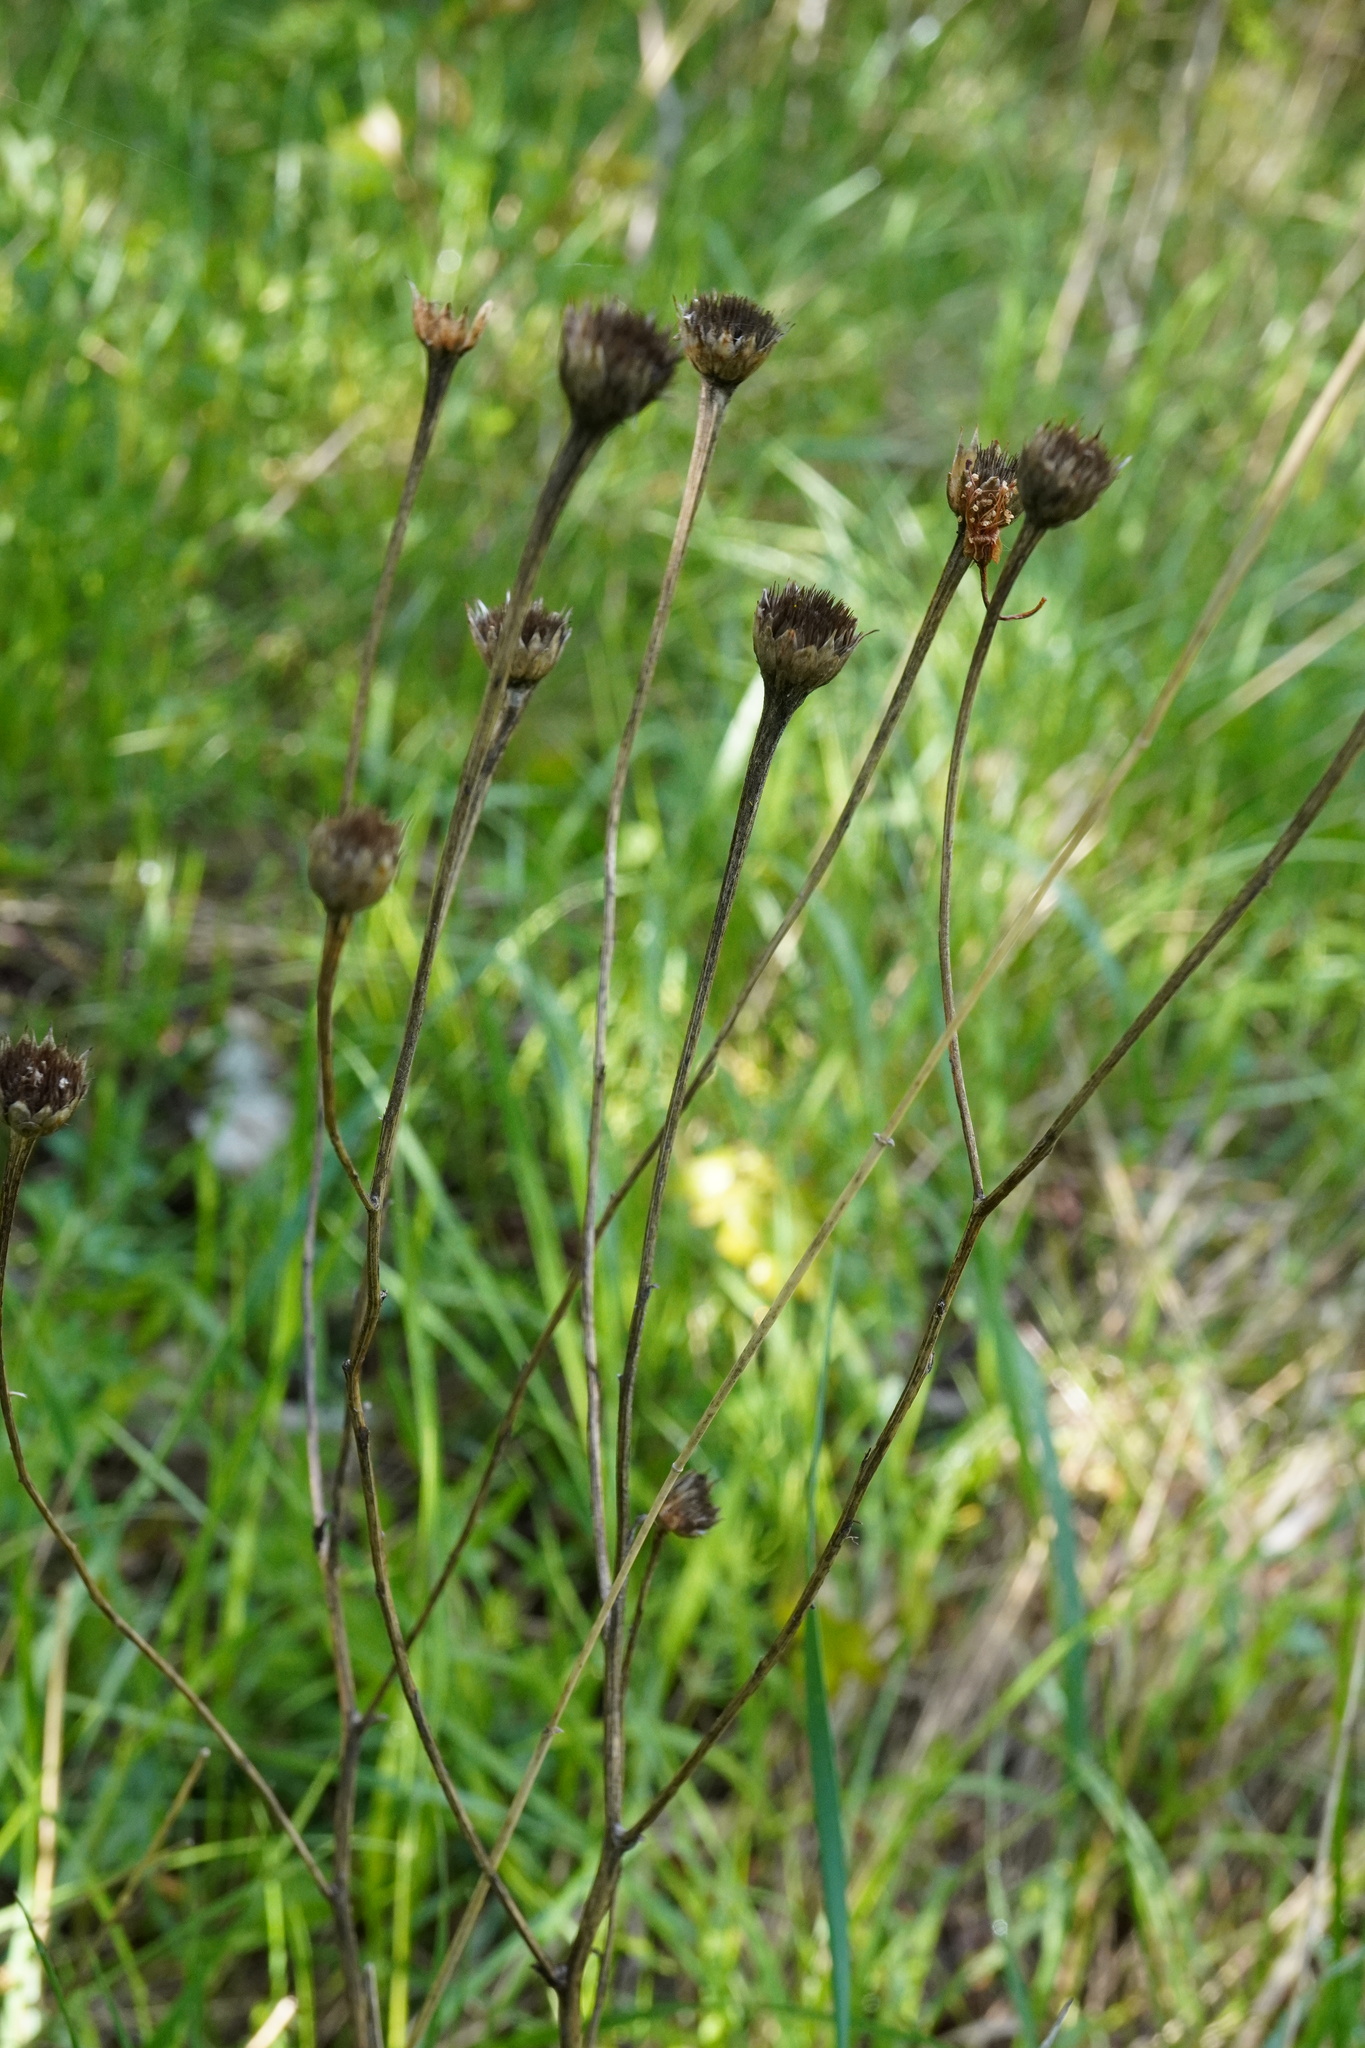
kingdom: Plantae
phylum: Tracheophyta
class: Magnoliopsida
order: Asterales
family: Asteraceae
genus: Buphthalmum
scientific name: Buphthalmum salicifolium
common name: Willow-leaved yellow-oxeye
